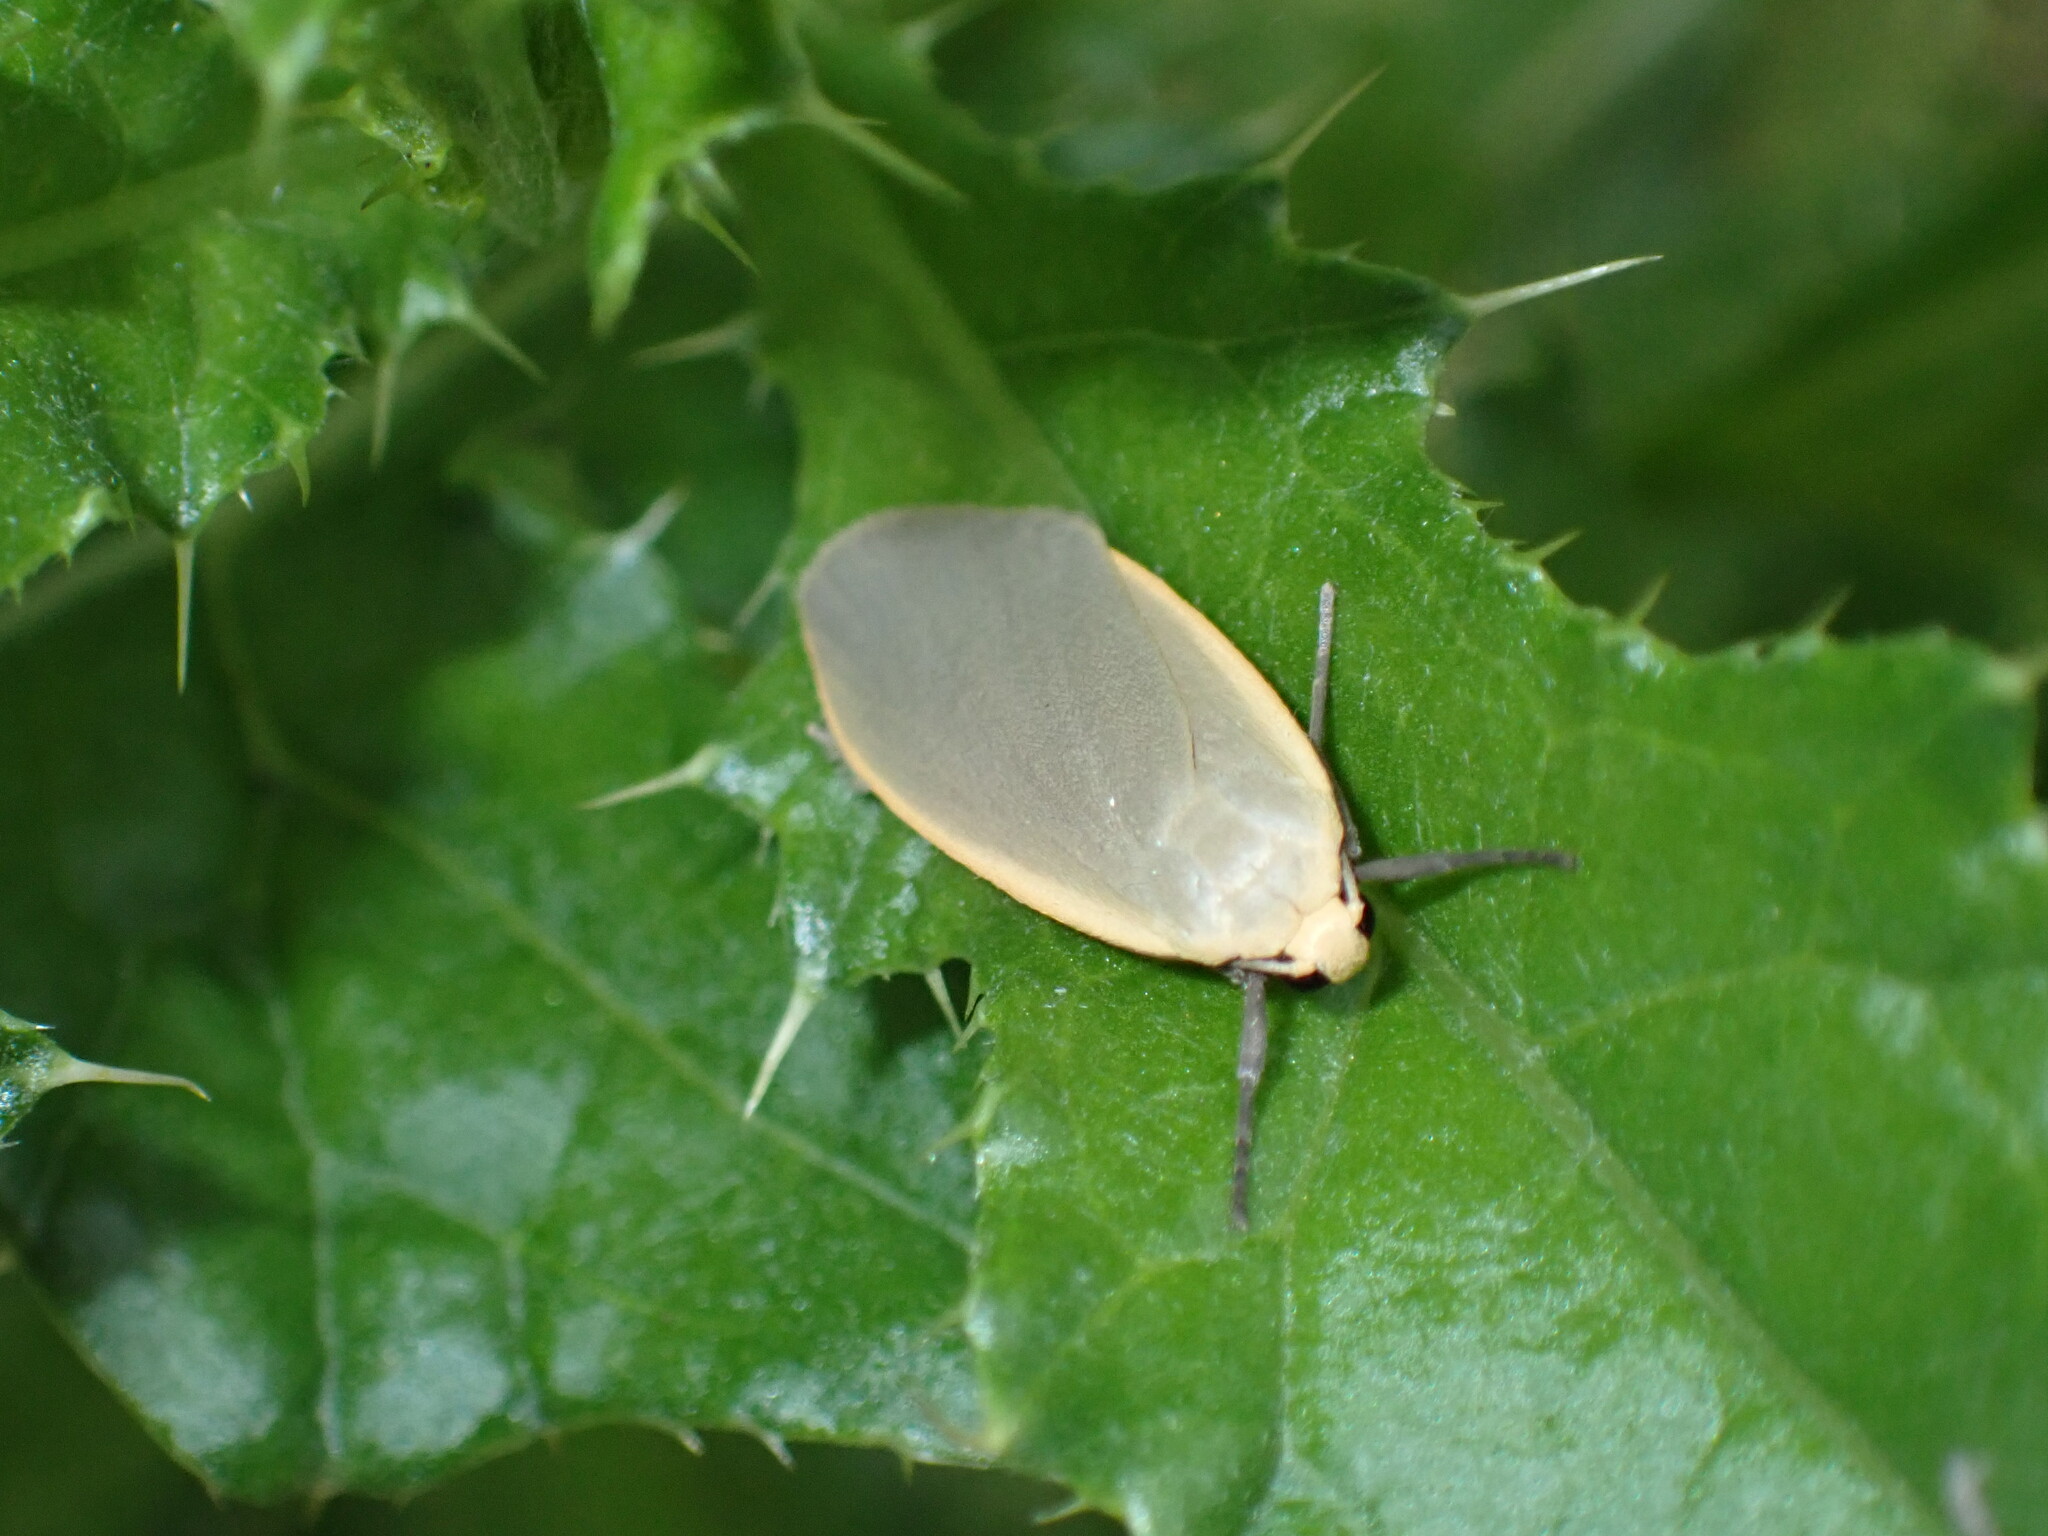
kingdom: Animalia
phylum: Arthropoda
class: Insecta
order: Lepidoptera
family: Erebidae
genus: Collita
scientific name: Collita griseola
